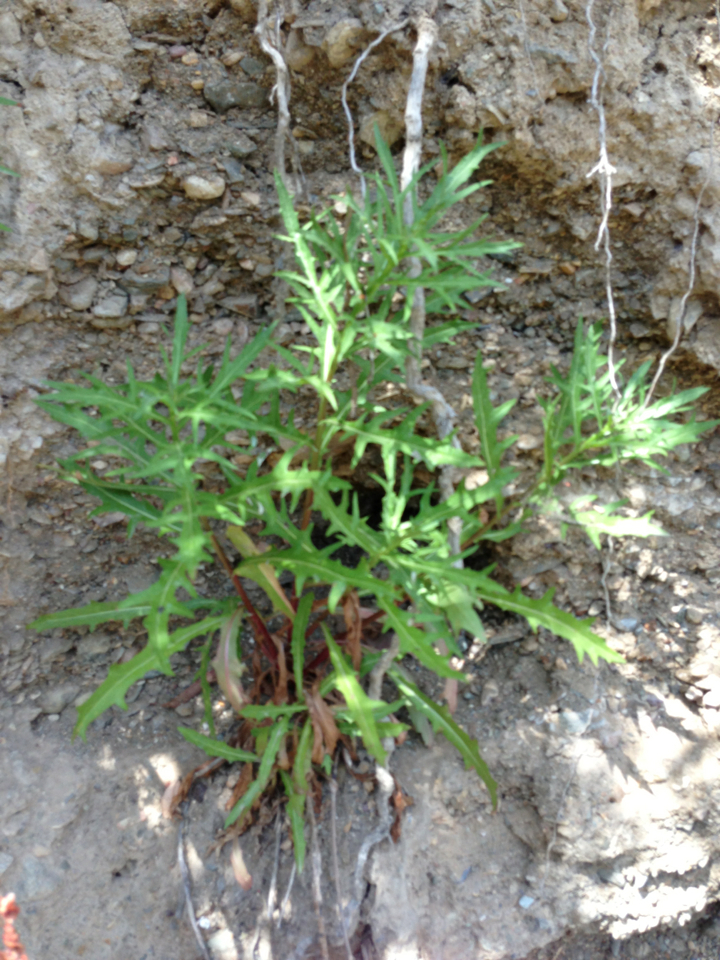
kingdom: Plantae
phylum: Tracheophyta
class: Magnoliopsida
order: Asterales
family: Asteraceae
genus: Malacothrix
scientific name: Malacothrix saxatilis
